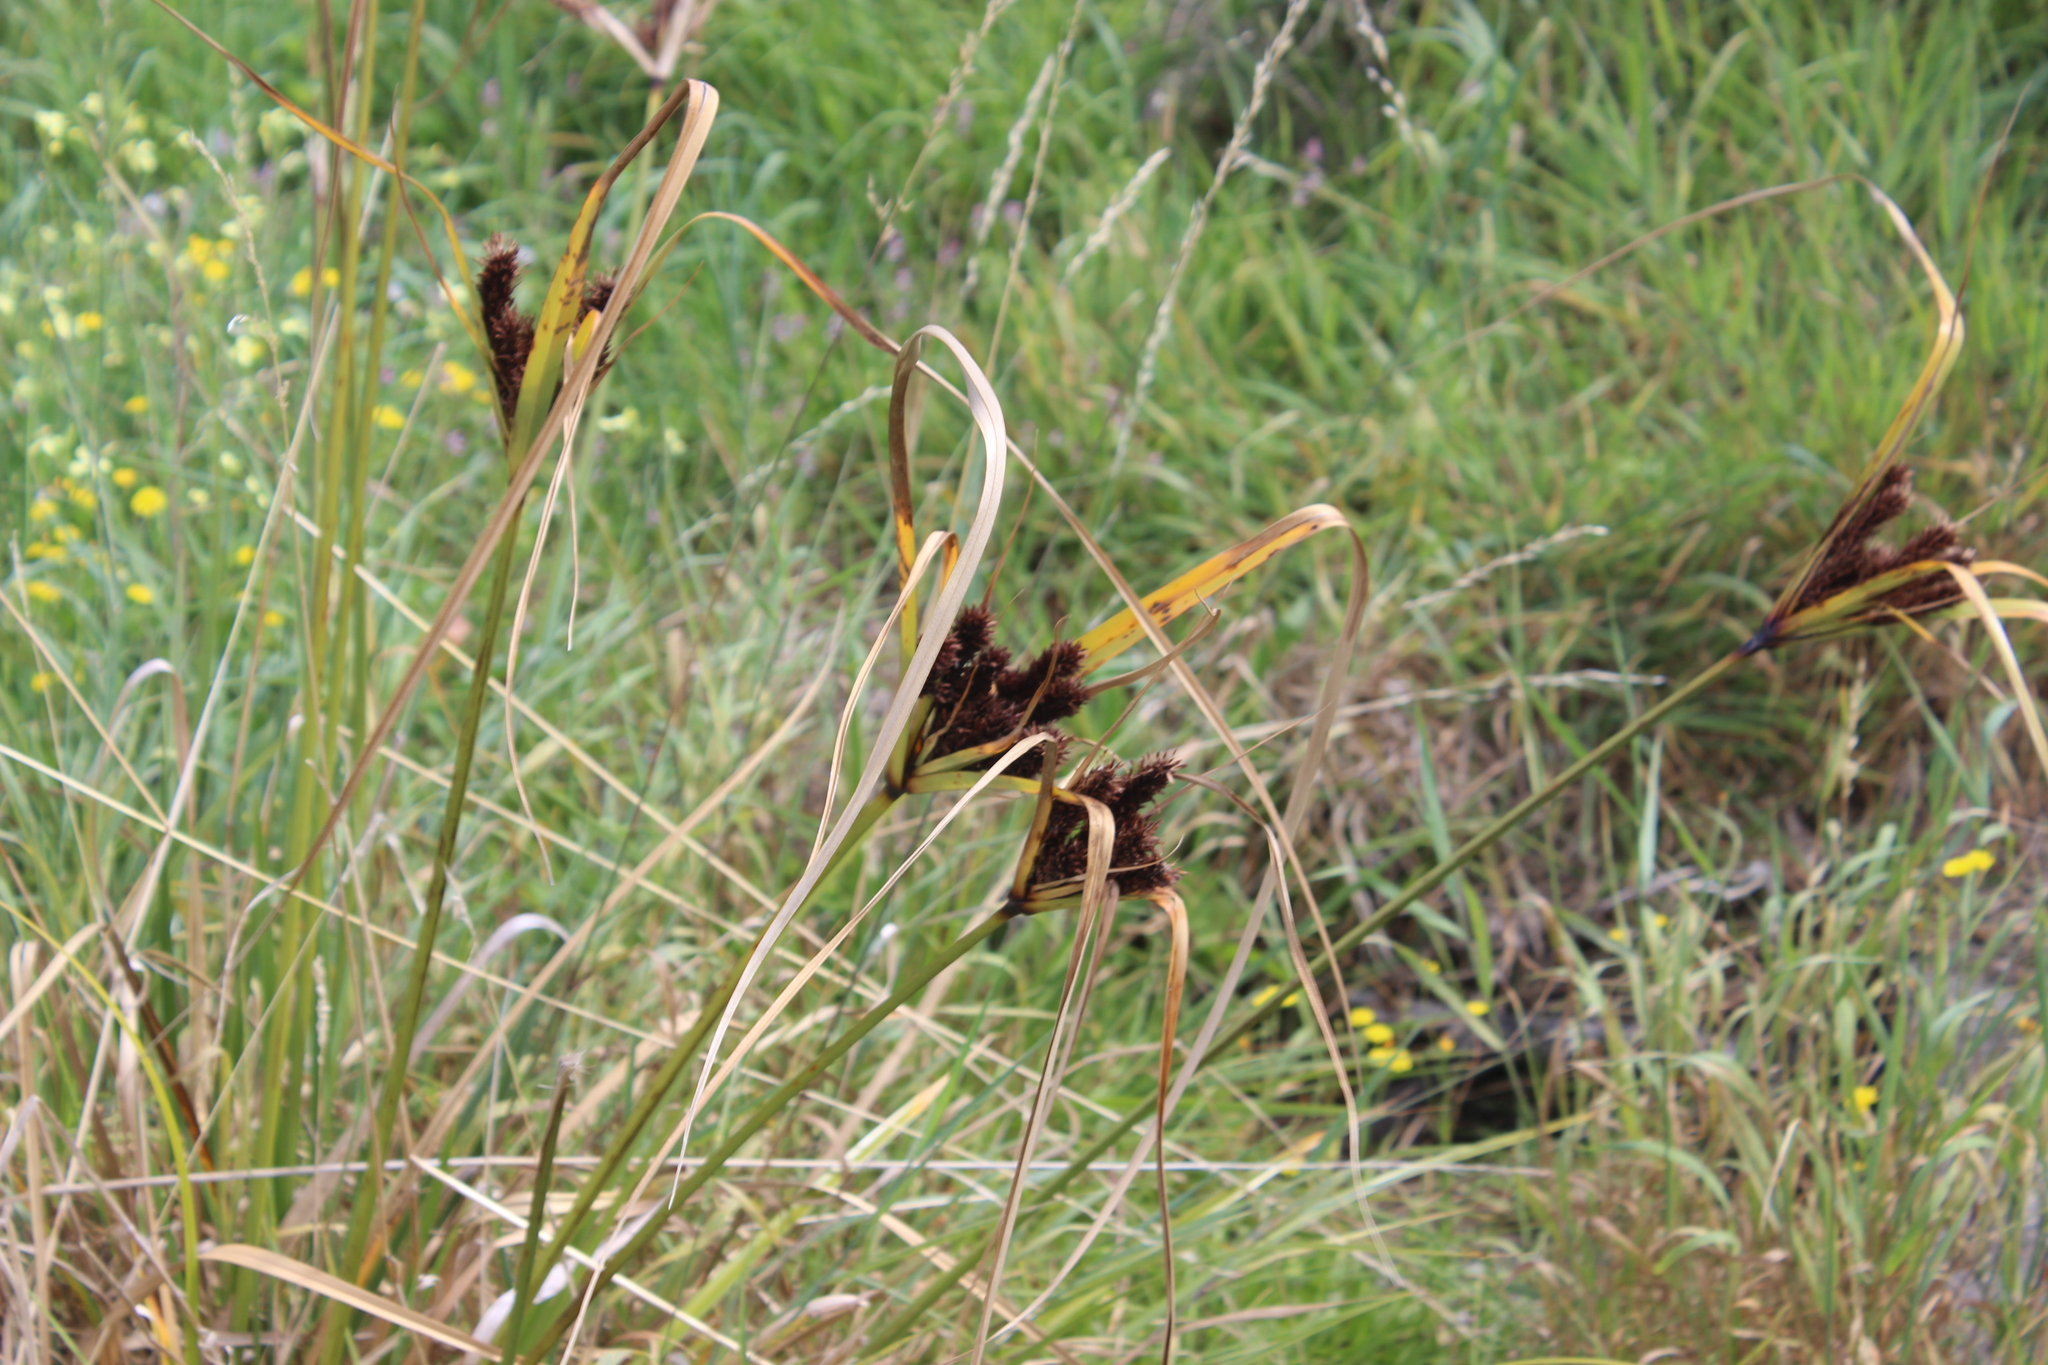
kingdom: Plantae
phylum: Tracheophyta
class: Liliopsida
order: Poales
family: Cyperaceae
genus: Cyperus
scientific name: Cyperus ustulatus
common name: Giant umbrella-sedge
